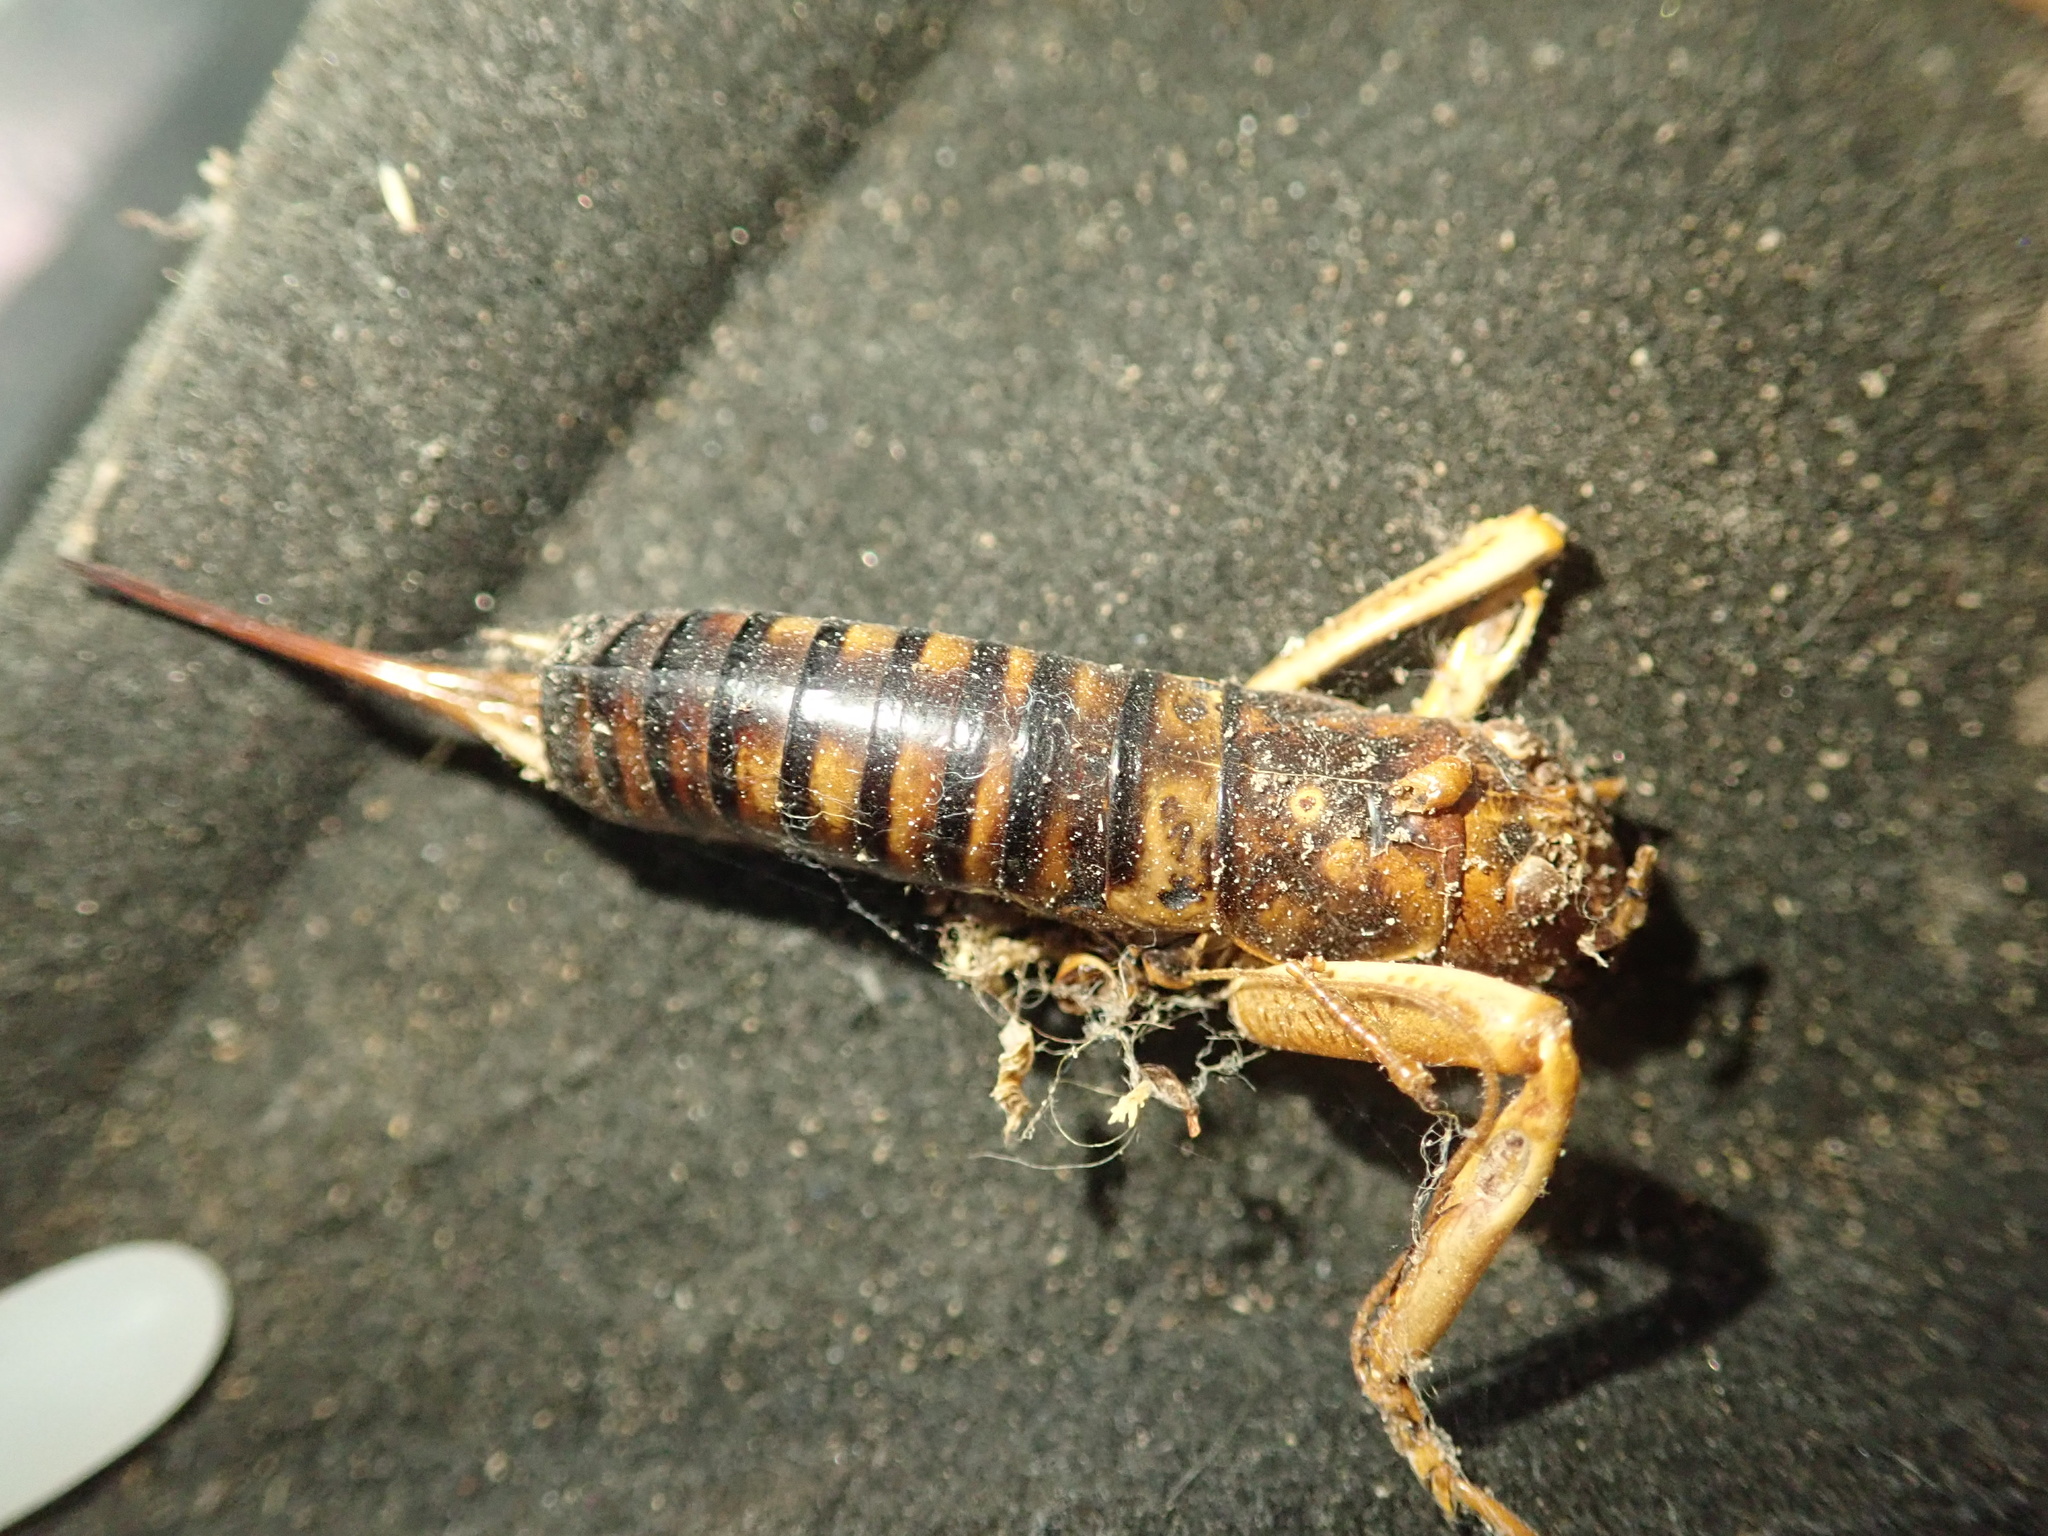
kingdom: Animalia
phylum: Arthropoda
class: Insecta
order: Orthoptera
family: Anostostomatidae
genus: Hemideina
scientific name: Hemideina crassidens
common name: Wellington tree weta
